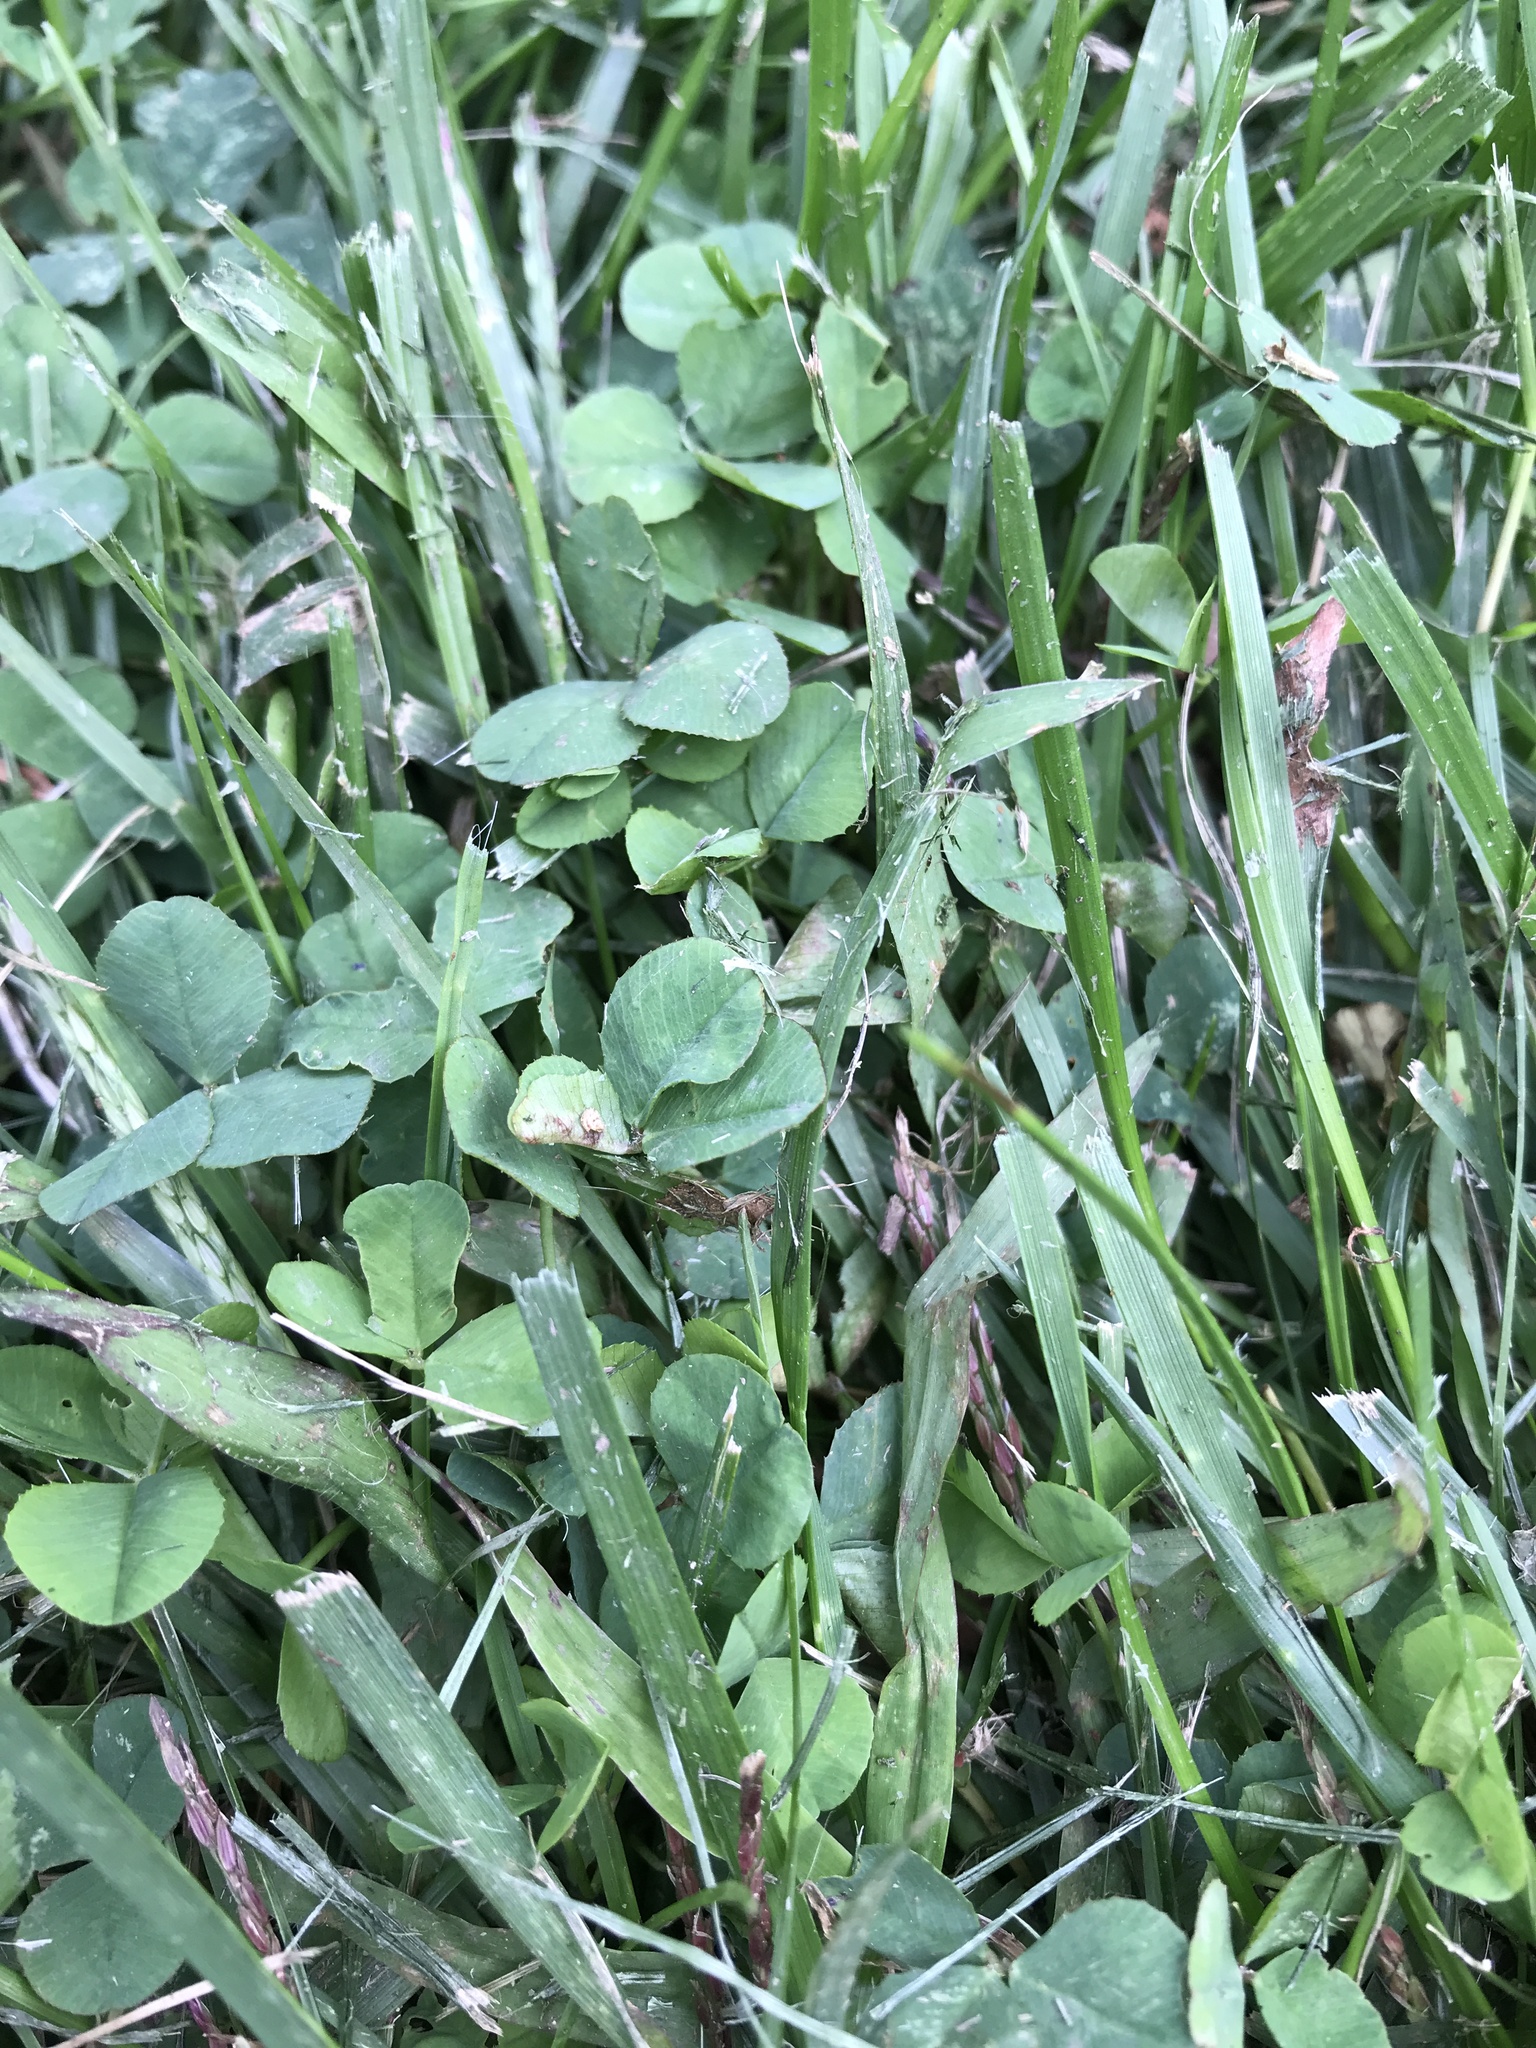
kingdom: Plantae
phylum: Tracheophyta
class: Magnoliopsida
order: Fabales
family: Fabaceae
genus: Trifolium
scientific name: Trifolium repens
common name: White clover
